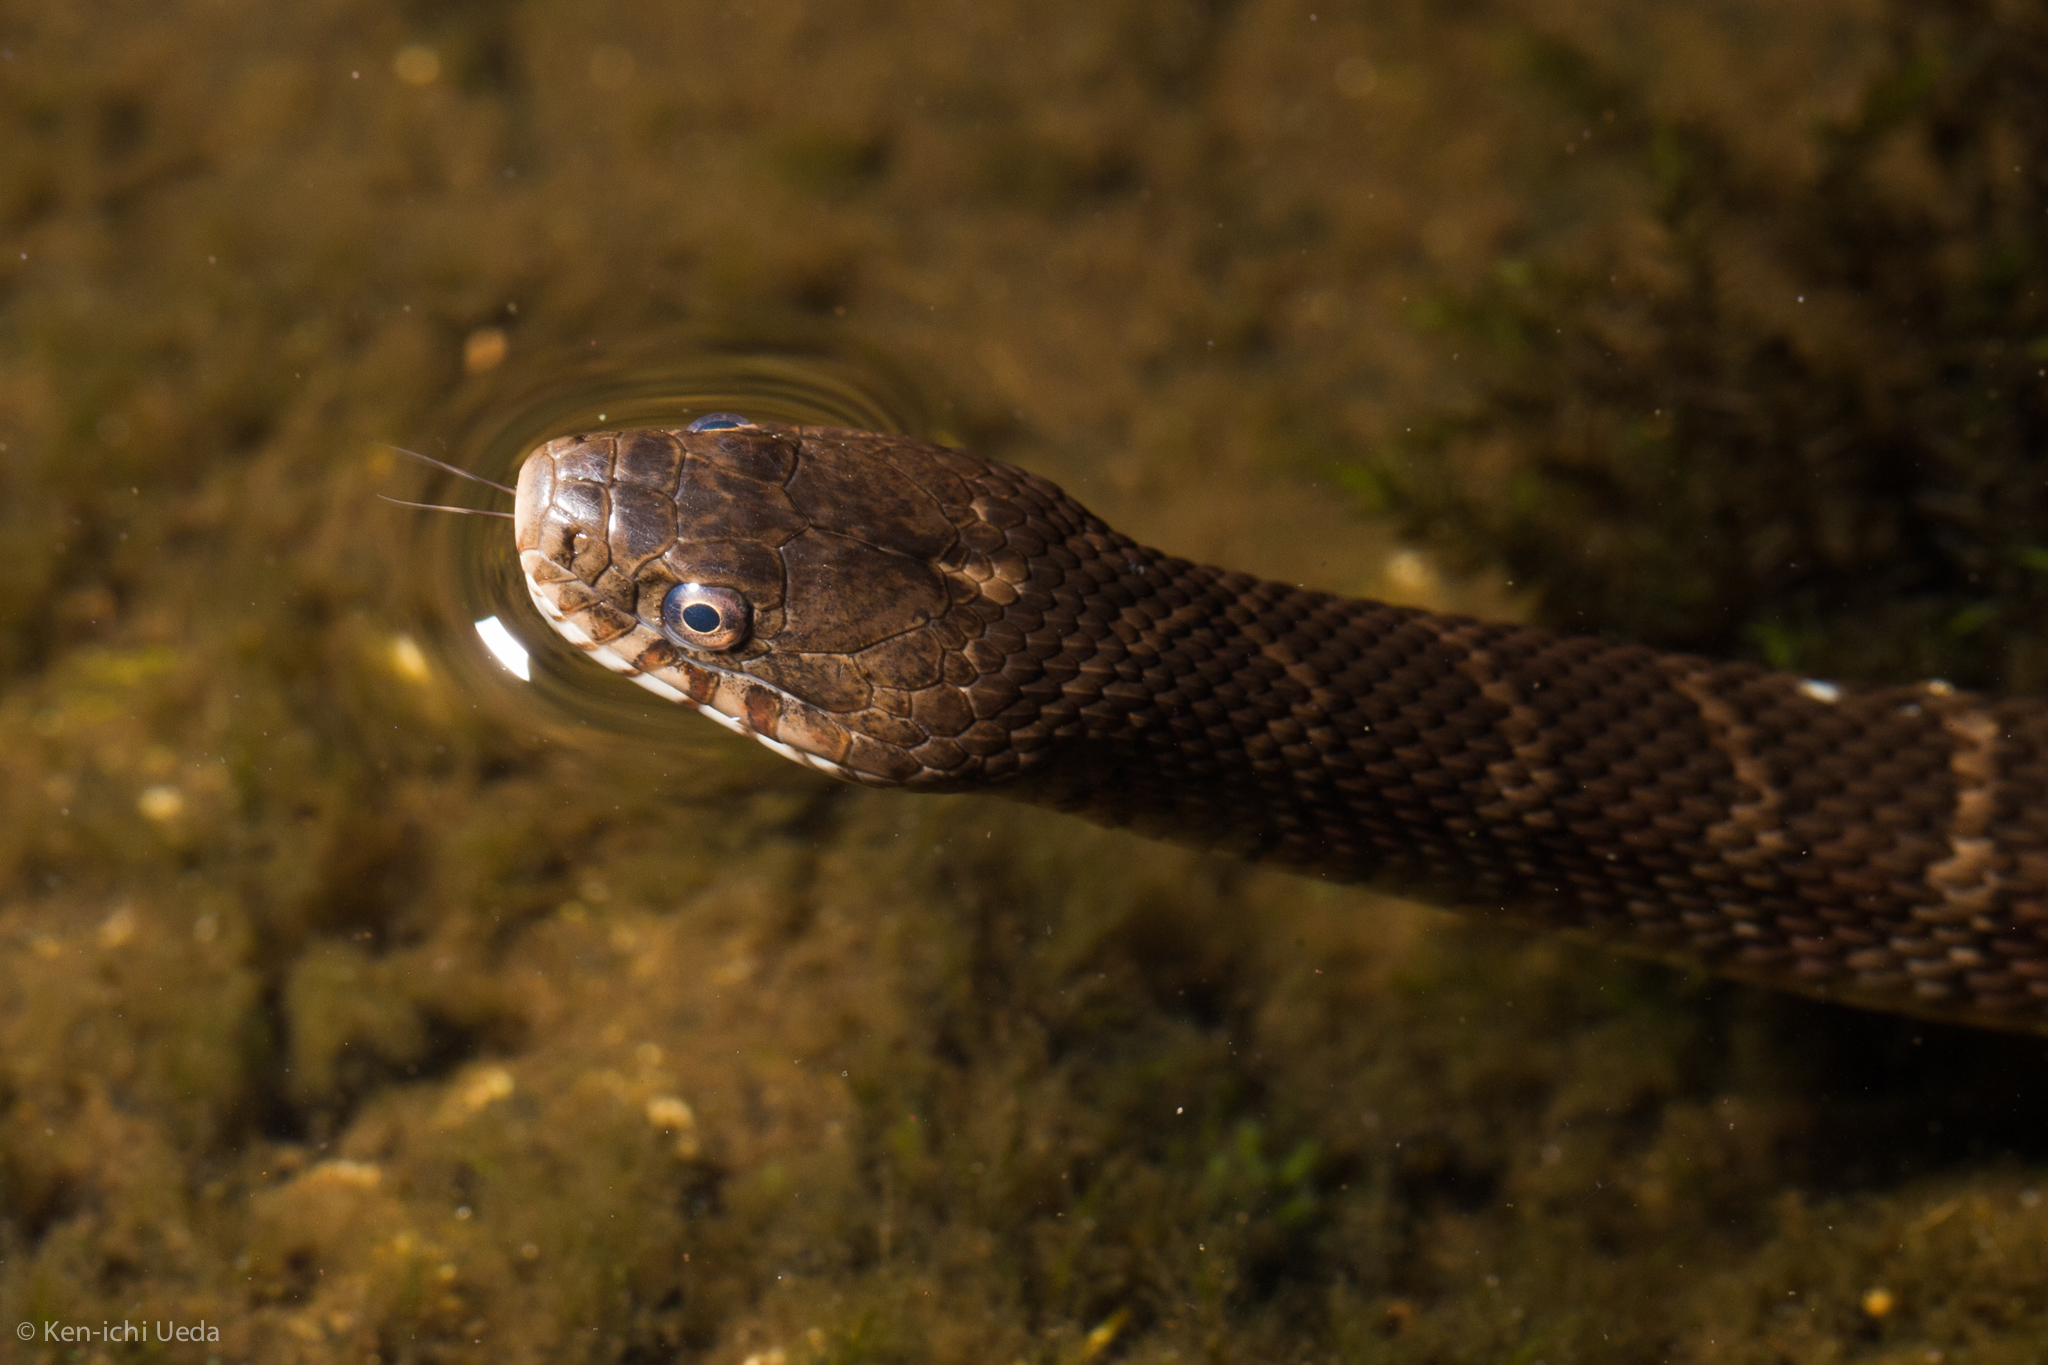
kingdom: Animalia
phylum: Chordata
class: Squamata
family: Colubridae
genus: Nerodia
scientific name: Nerodia sipedon
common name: Northern water snake
